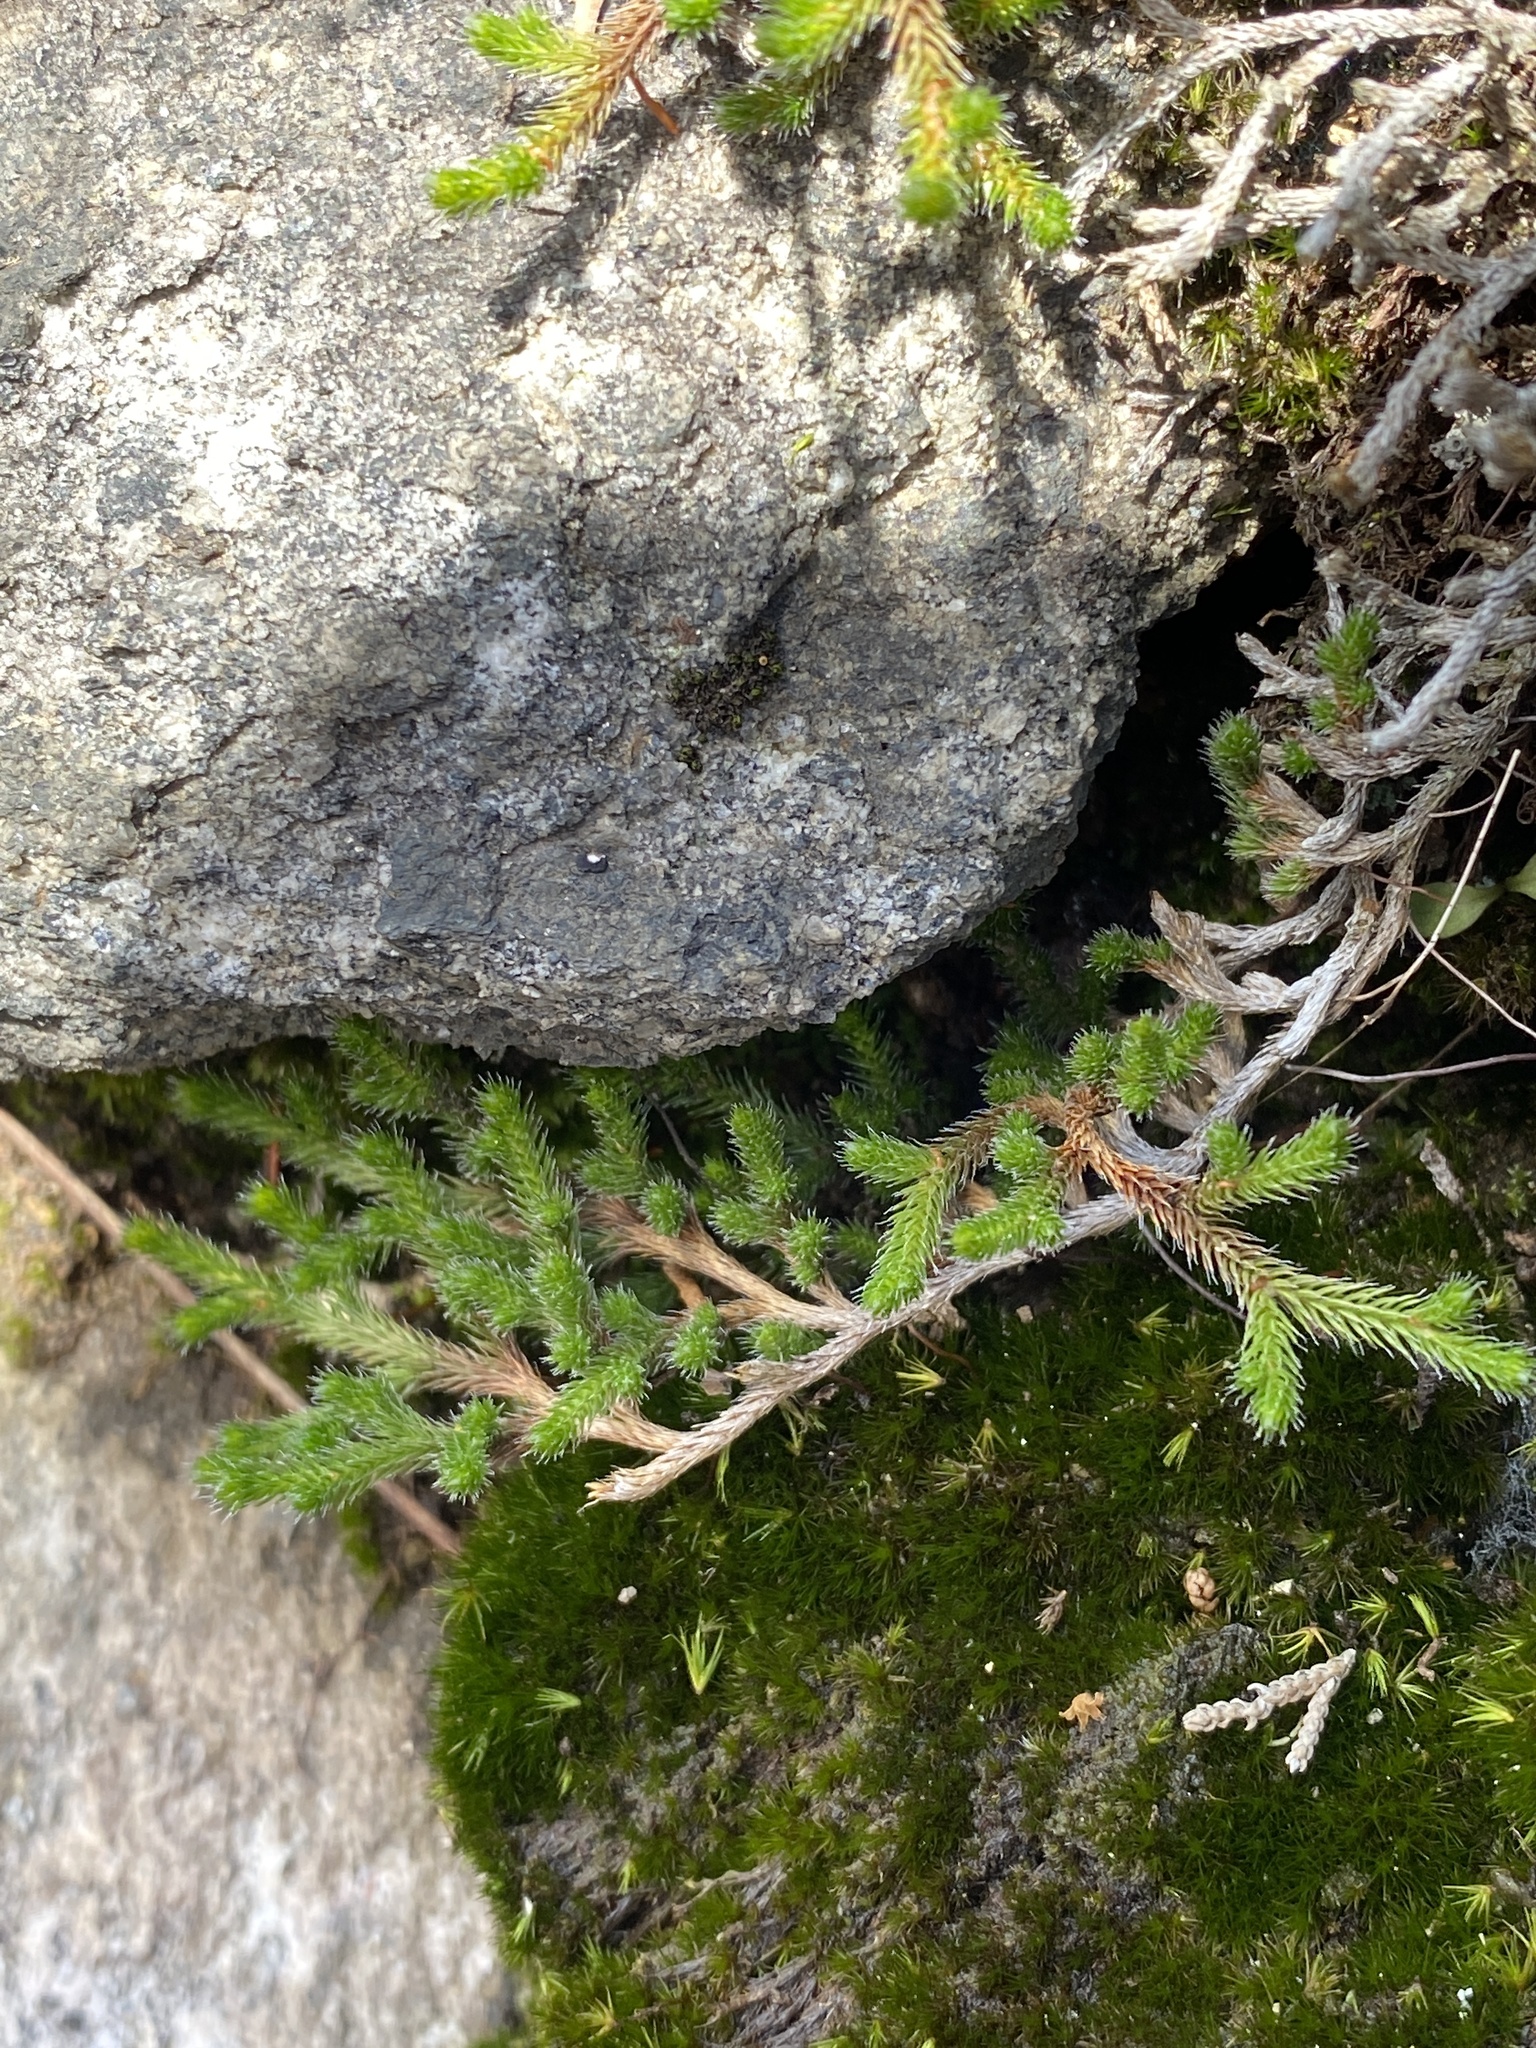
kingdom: Plantae
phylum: Tracheophyta
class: Lycopodiopsida
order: Selaginellales
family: Selaginellaceae
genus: Selaginella
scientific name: Selaginella tortipila
